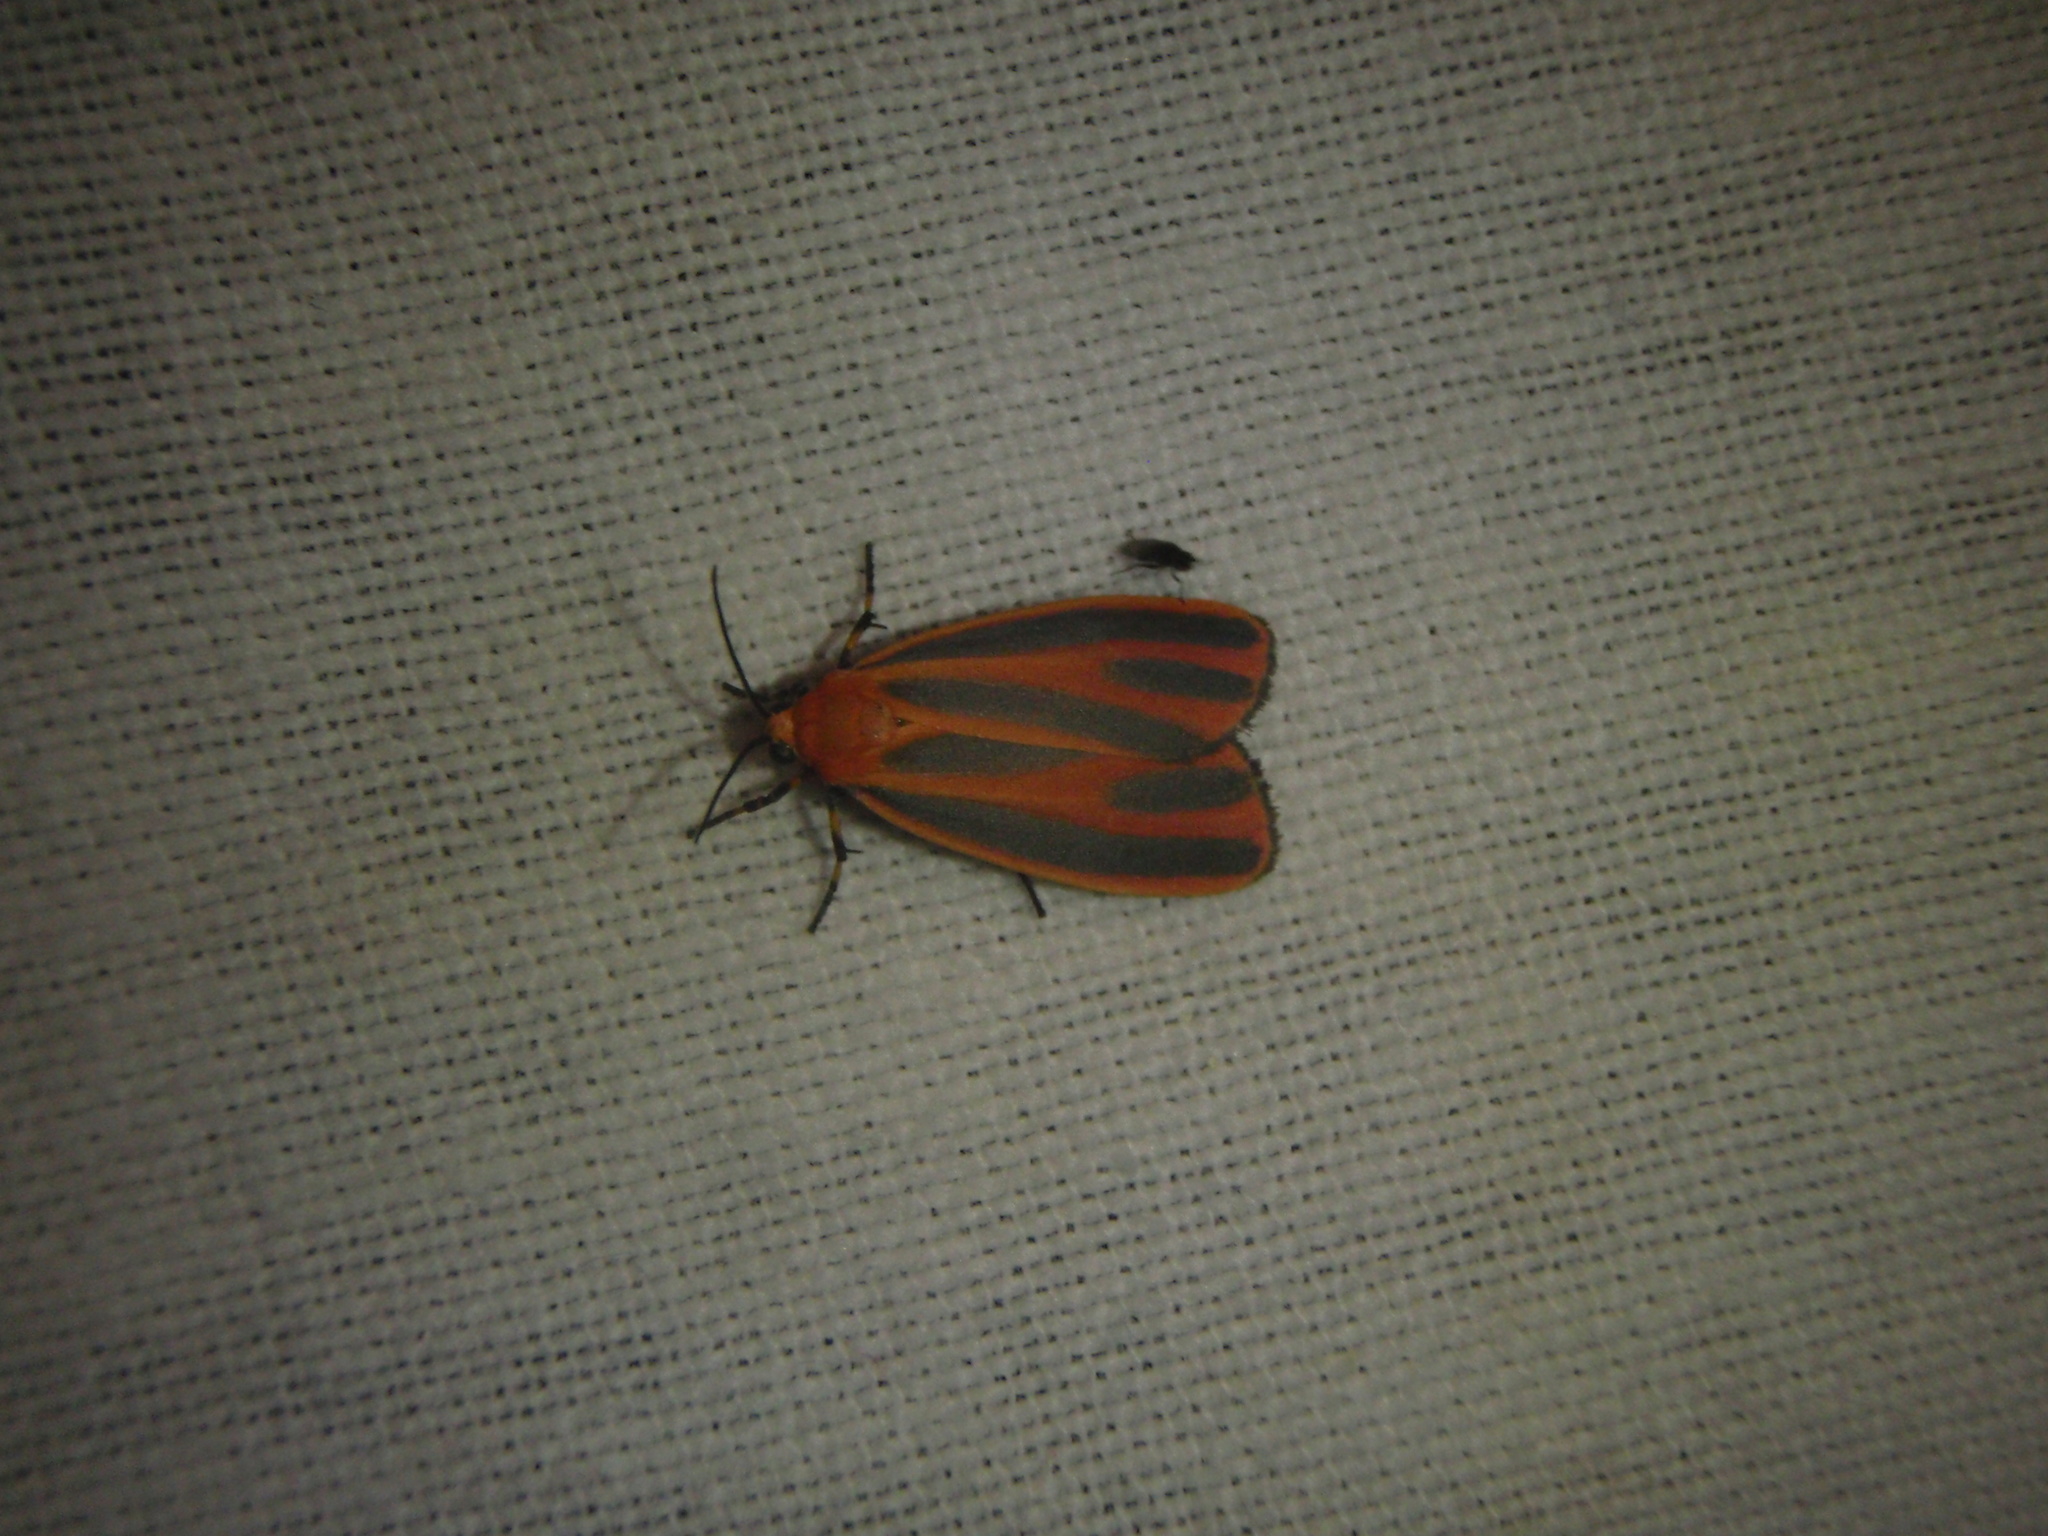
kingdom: Animalia
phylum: Arthropoda
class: Insecta
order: Lepidoptera
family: Erebidae
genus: Hypoprepia
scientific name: Hypoprepia miniata
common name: Scarlet-winged lichen moth
